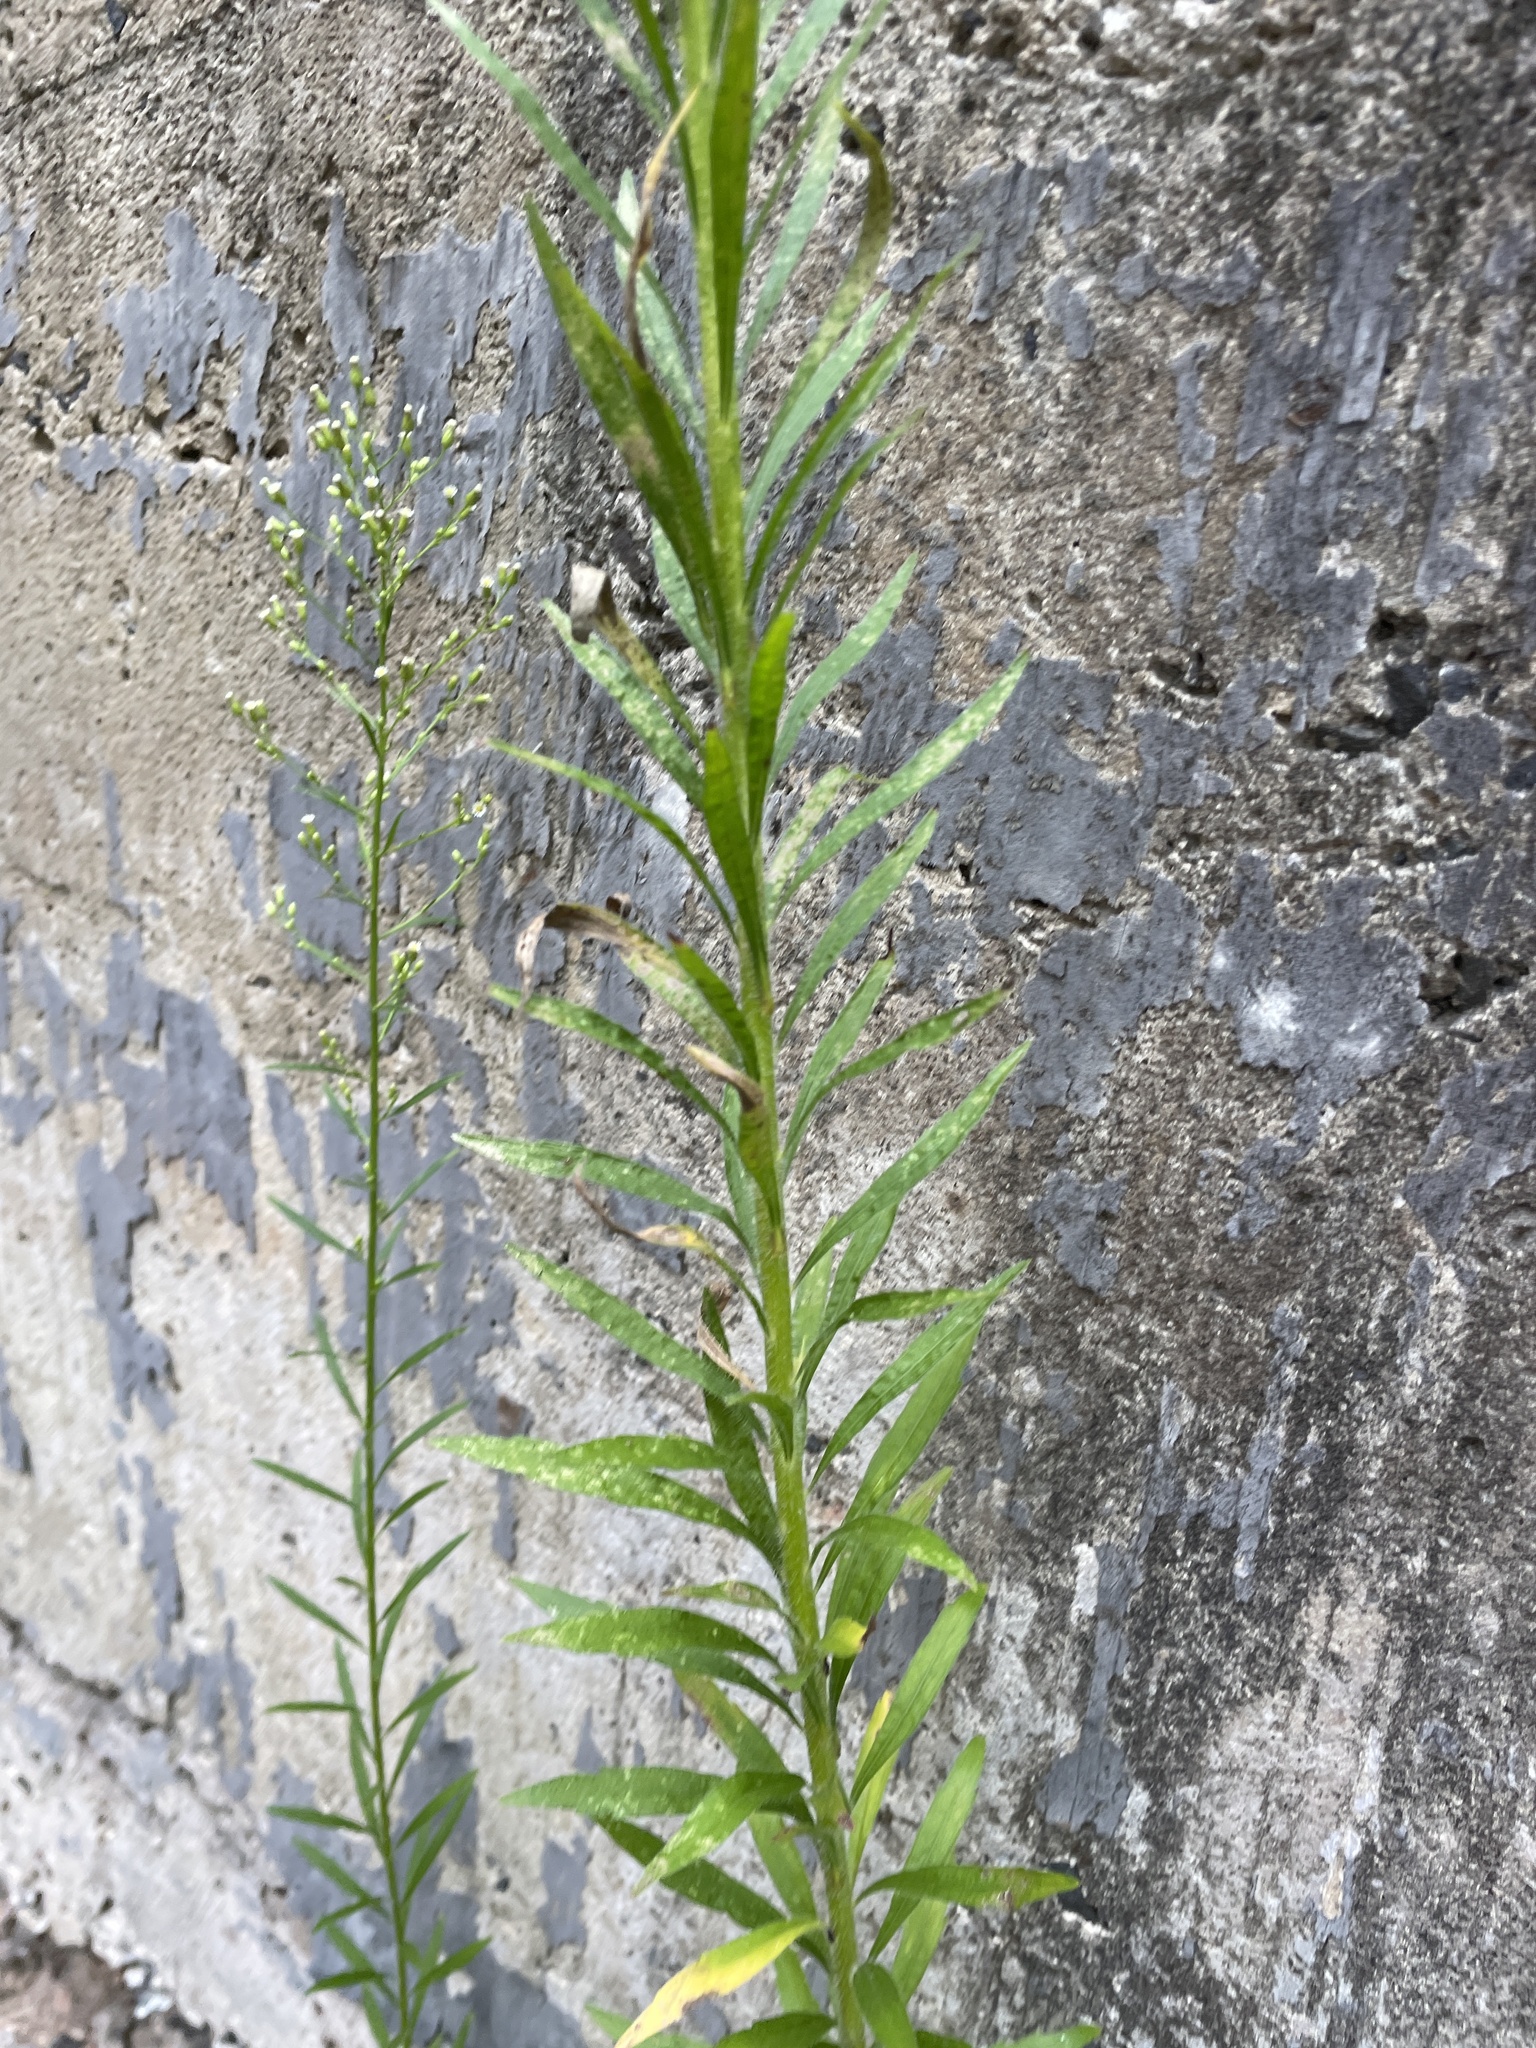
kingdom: Plantae
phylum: Tracheophyta
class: Magnoliopsida
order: Asterales
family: Asteraceae
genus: Erigeron
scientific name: Erigeron canadensis
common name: Canadian fleabane
